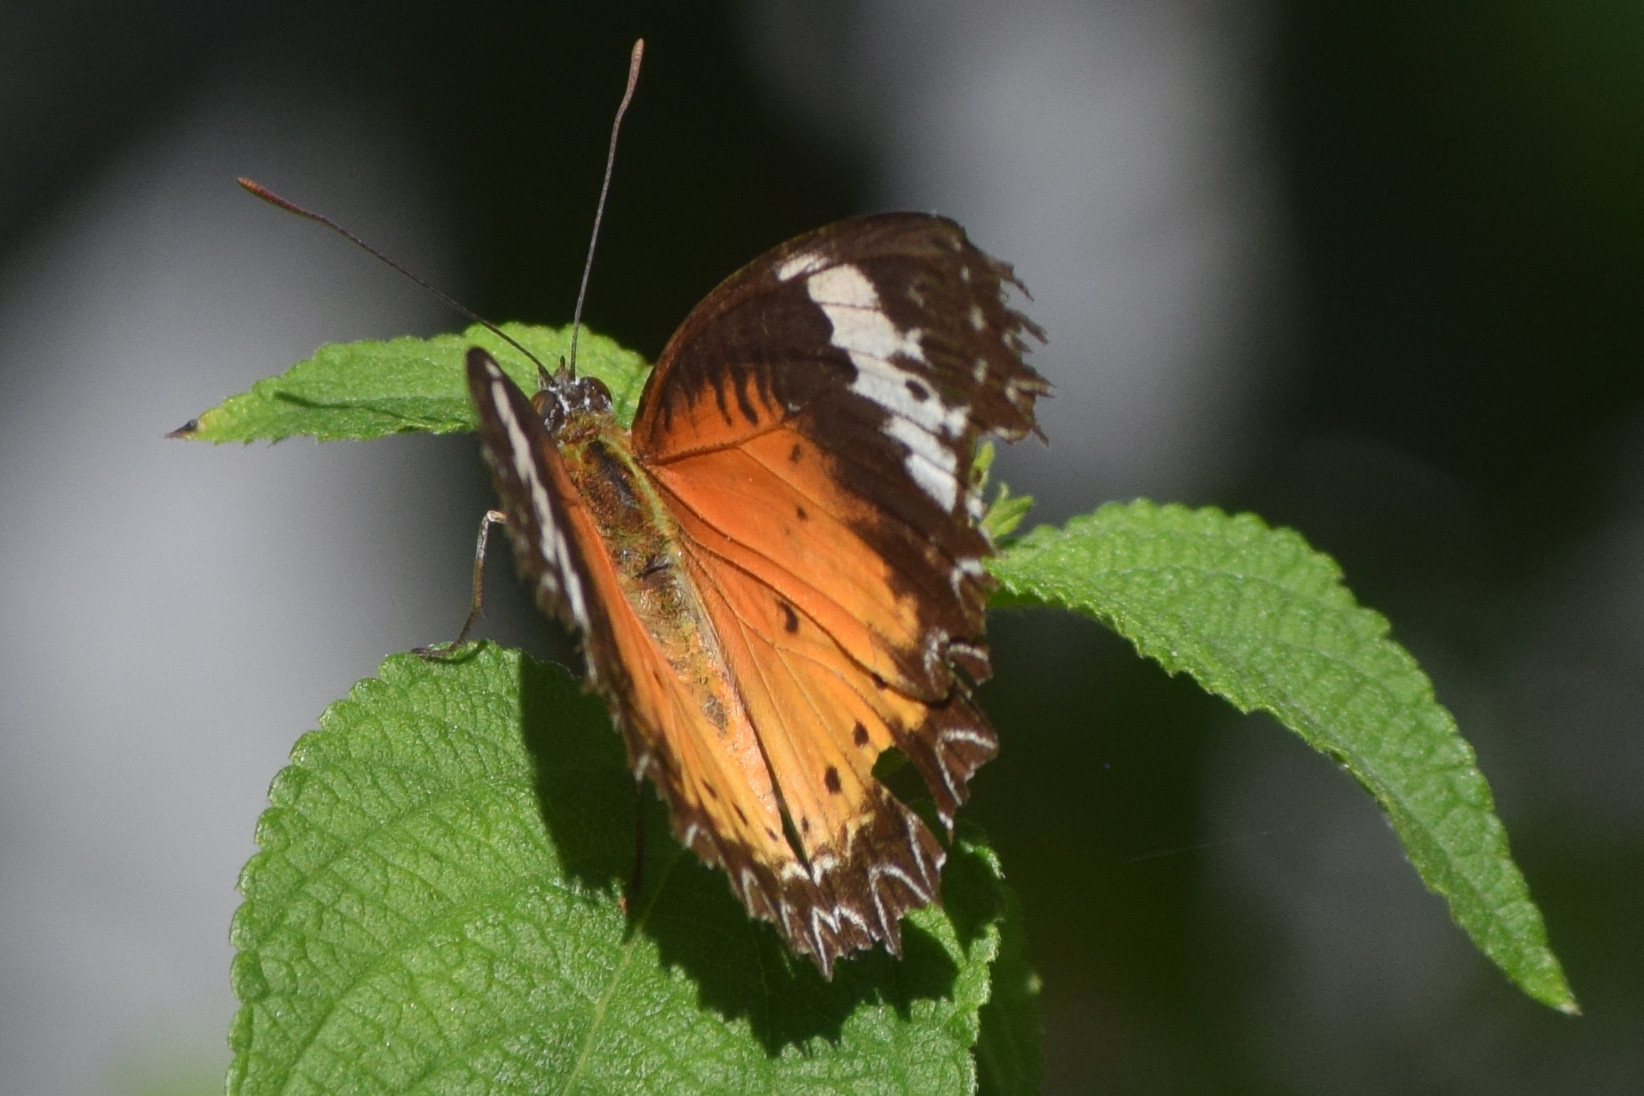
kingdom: Animalia
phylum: Arthropoda
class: Insecta
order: Lepidoptera
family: Nymphalidae
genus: Cethosia
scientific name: Cethosia cyane
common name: Leopard lacewing butterfly
